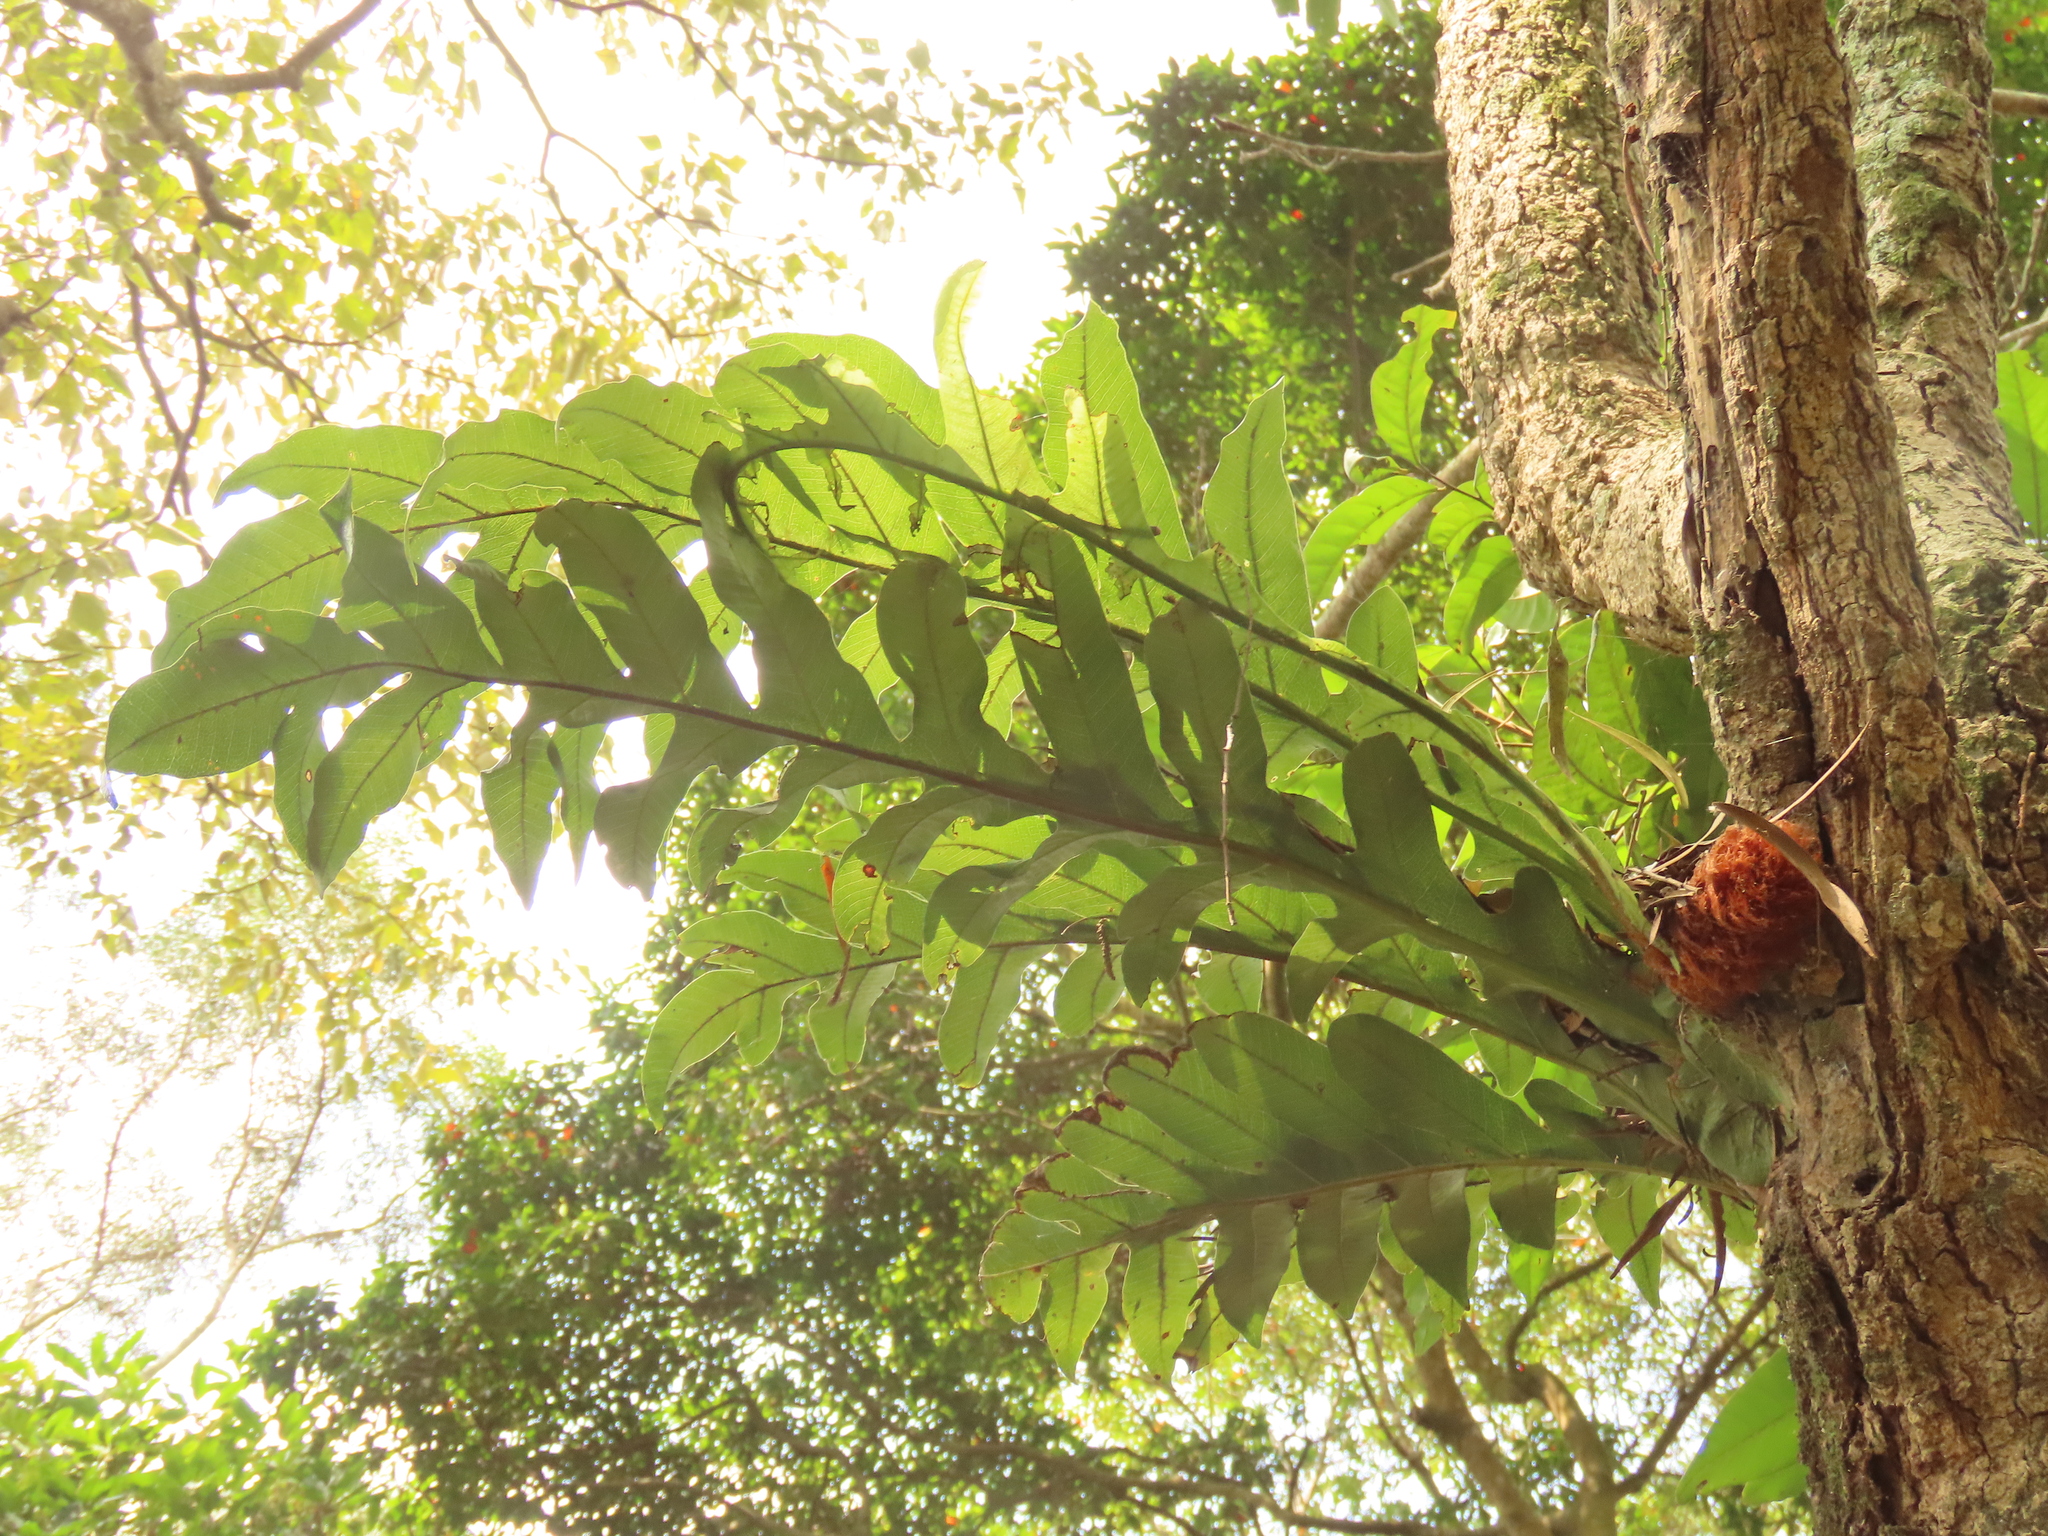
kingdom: Plantae
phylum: Tracheophyta
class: Polypodiopsida
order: Polypodiales
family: Polypodiaceae
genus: Drynaria
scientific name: Drynaria coronans
